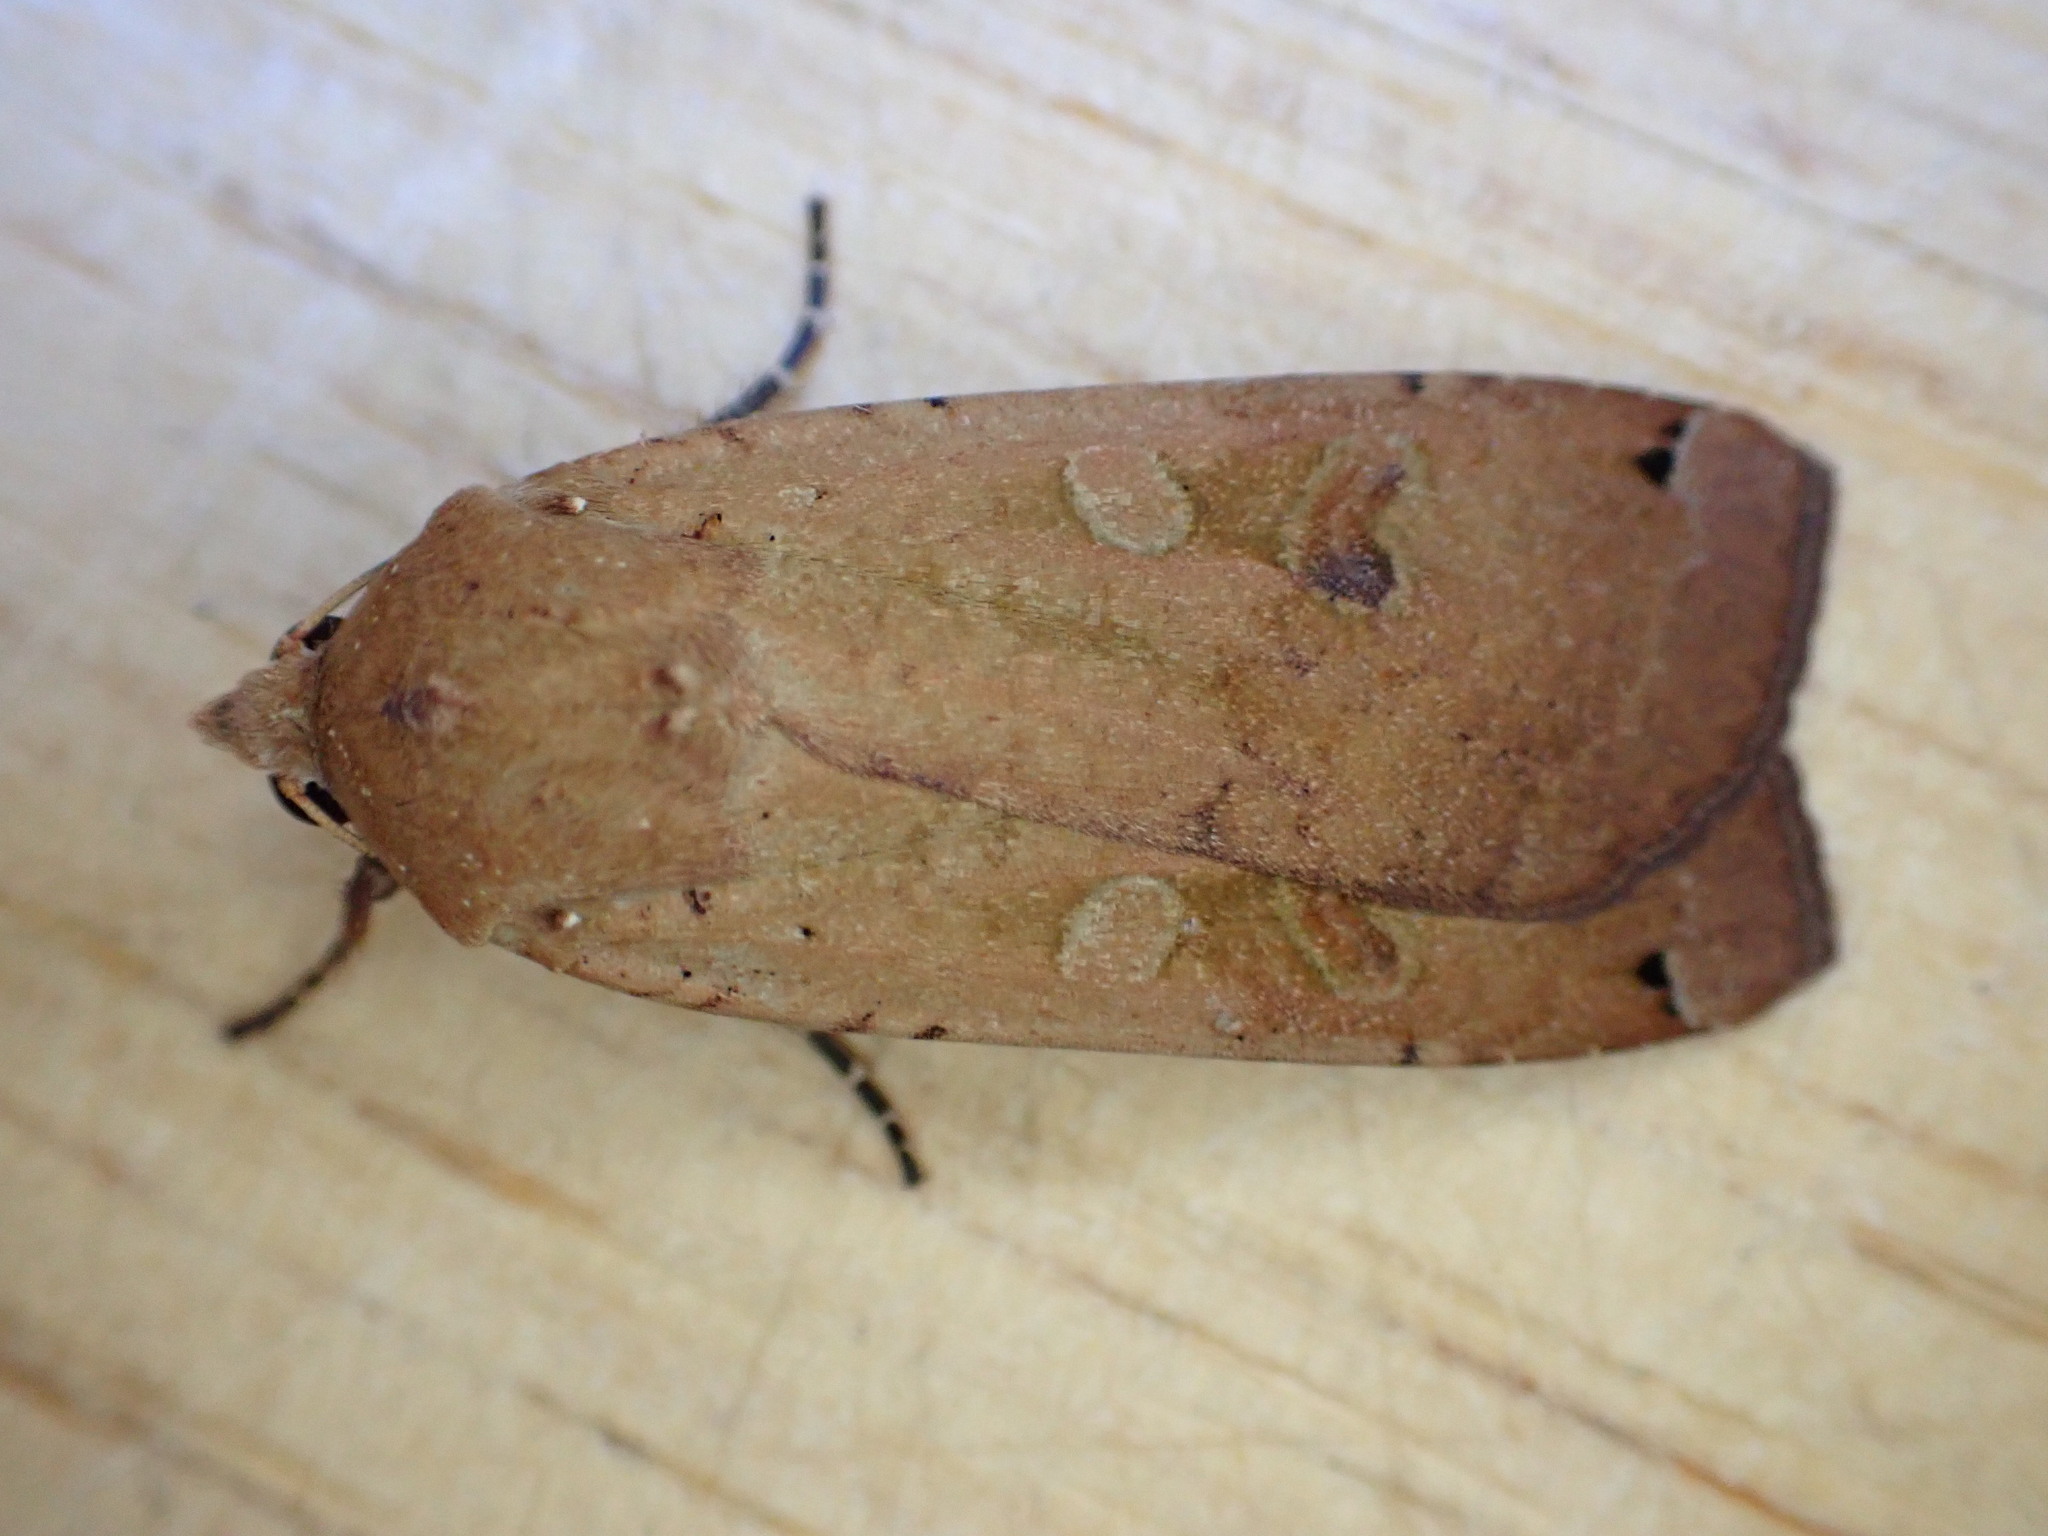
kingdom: Animalia
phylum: Arthropoda
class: Insecta
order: Lepidoptera
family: Noctuidae
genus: Noctua
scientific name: Noctua pronuba
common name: Large yellow underwing
